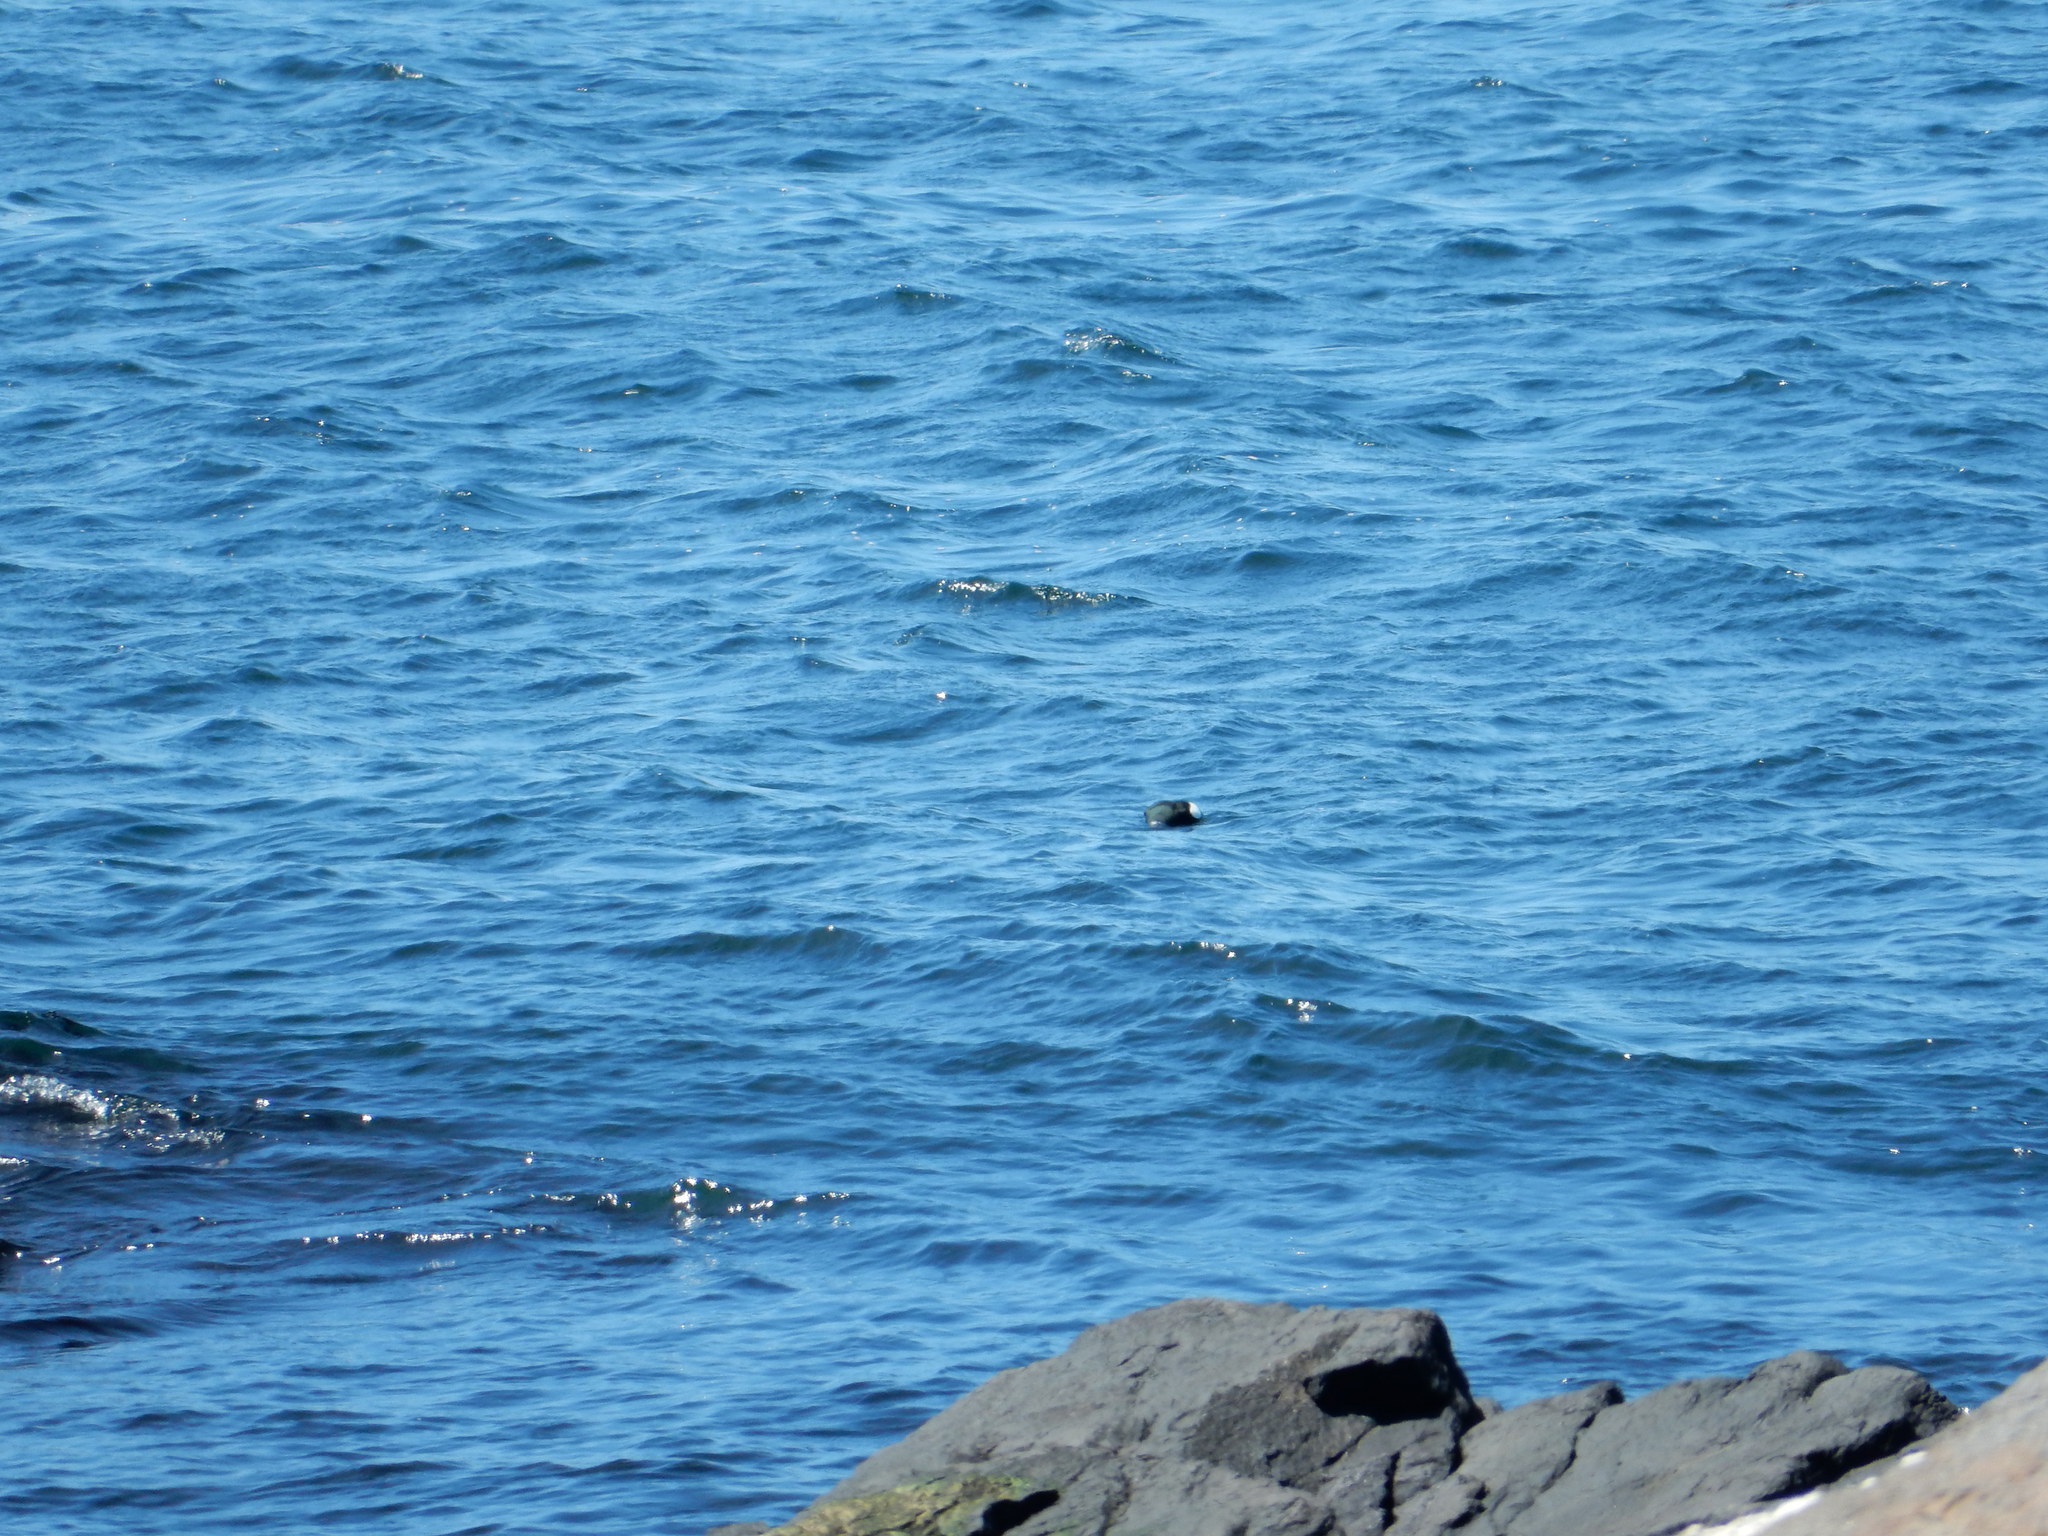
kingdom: Animalia
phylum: Chordata
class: Aves
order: Charadriiformes
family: Alcidae
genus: Cepphus
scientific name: Cepphus grylle
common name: Black guillemot
